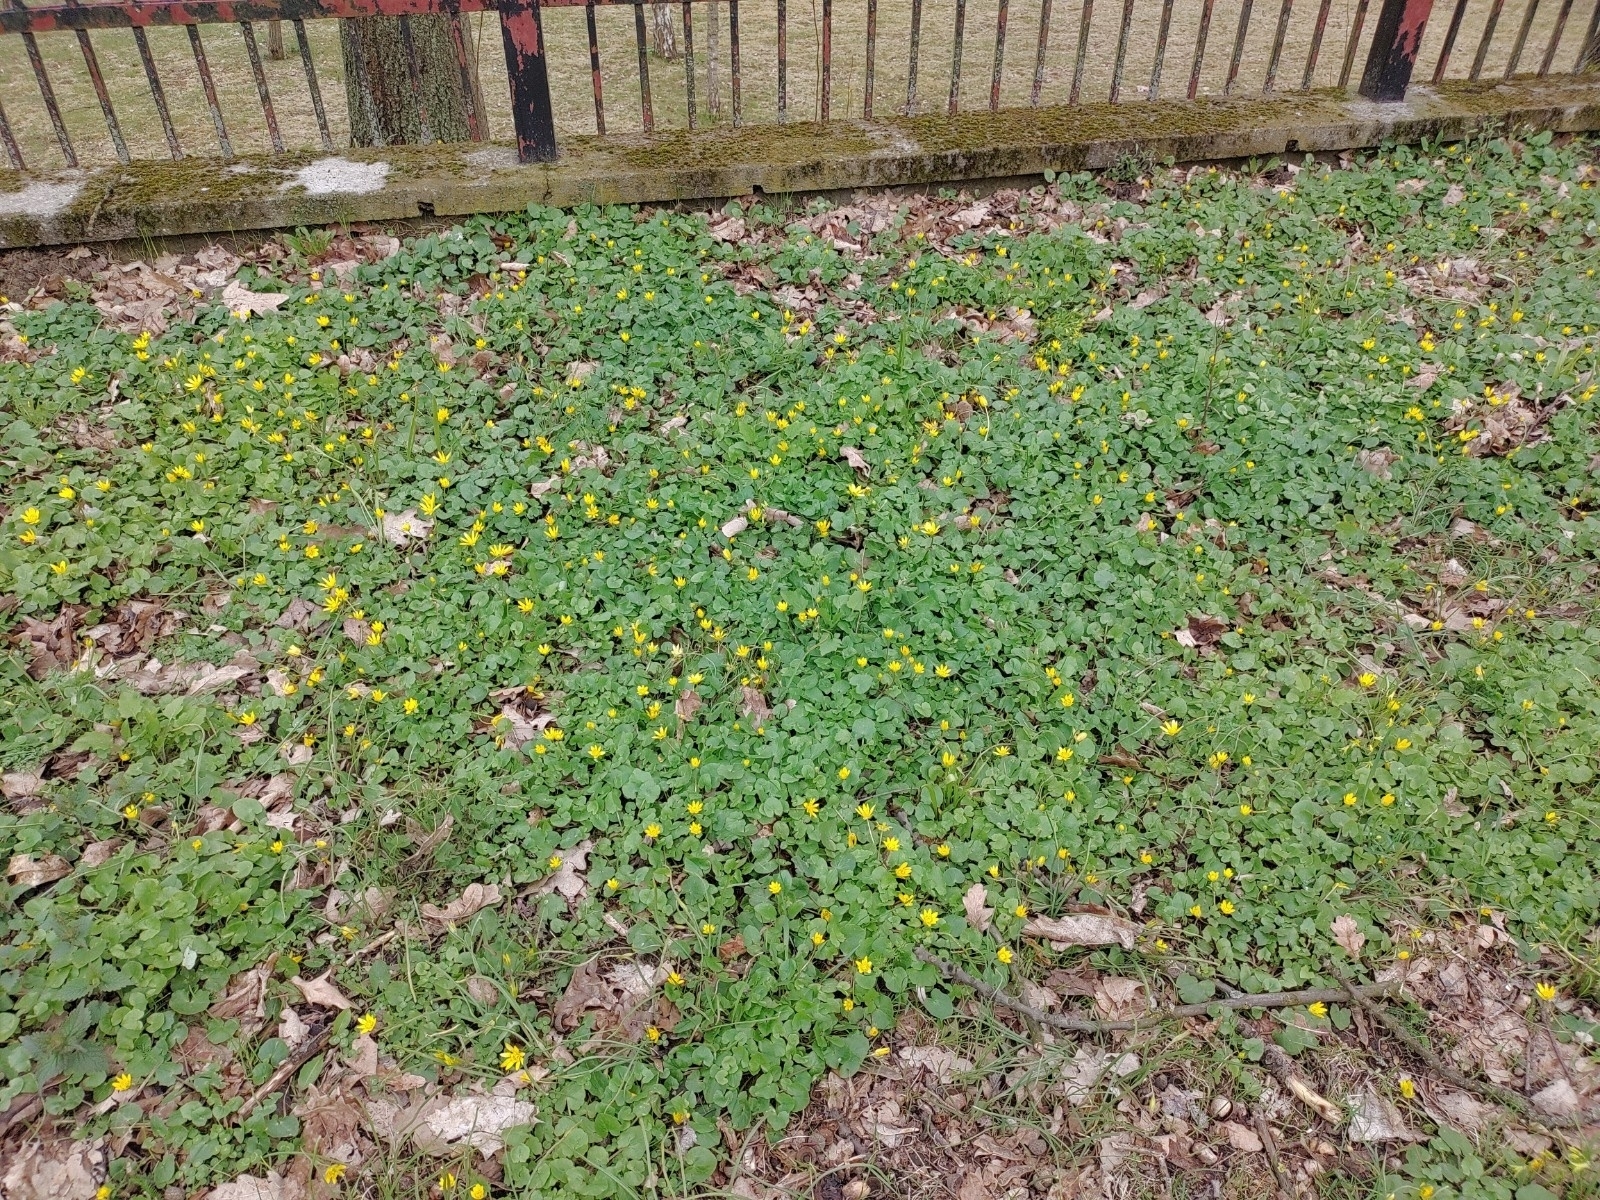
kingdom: Plantae
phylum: Tracheophyta
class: Magnoliopsida
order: Ranunculales
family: Ranunculaceae
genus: Ficaria
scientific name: Ficaria verna
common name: Lesser celandine
